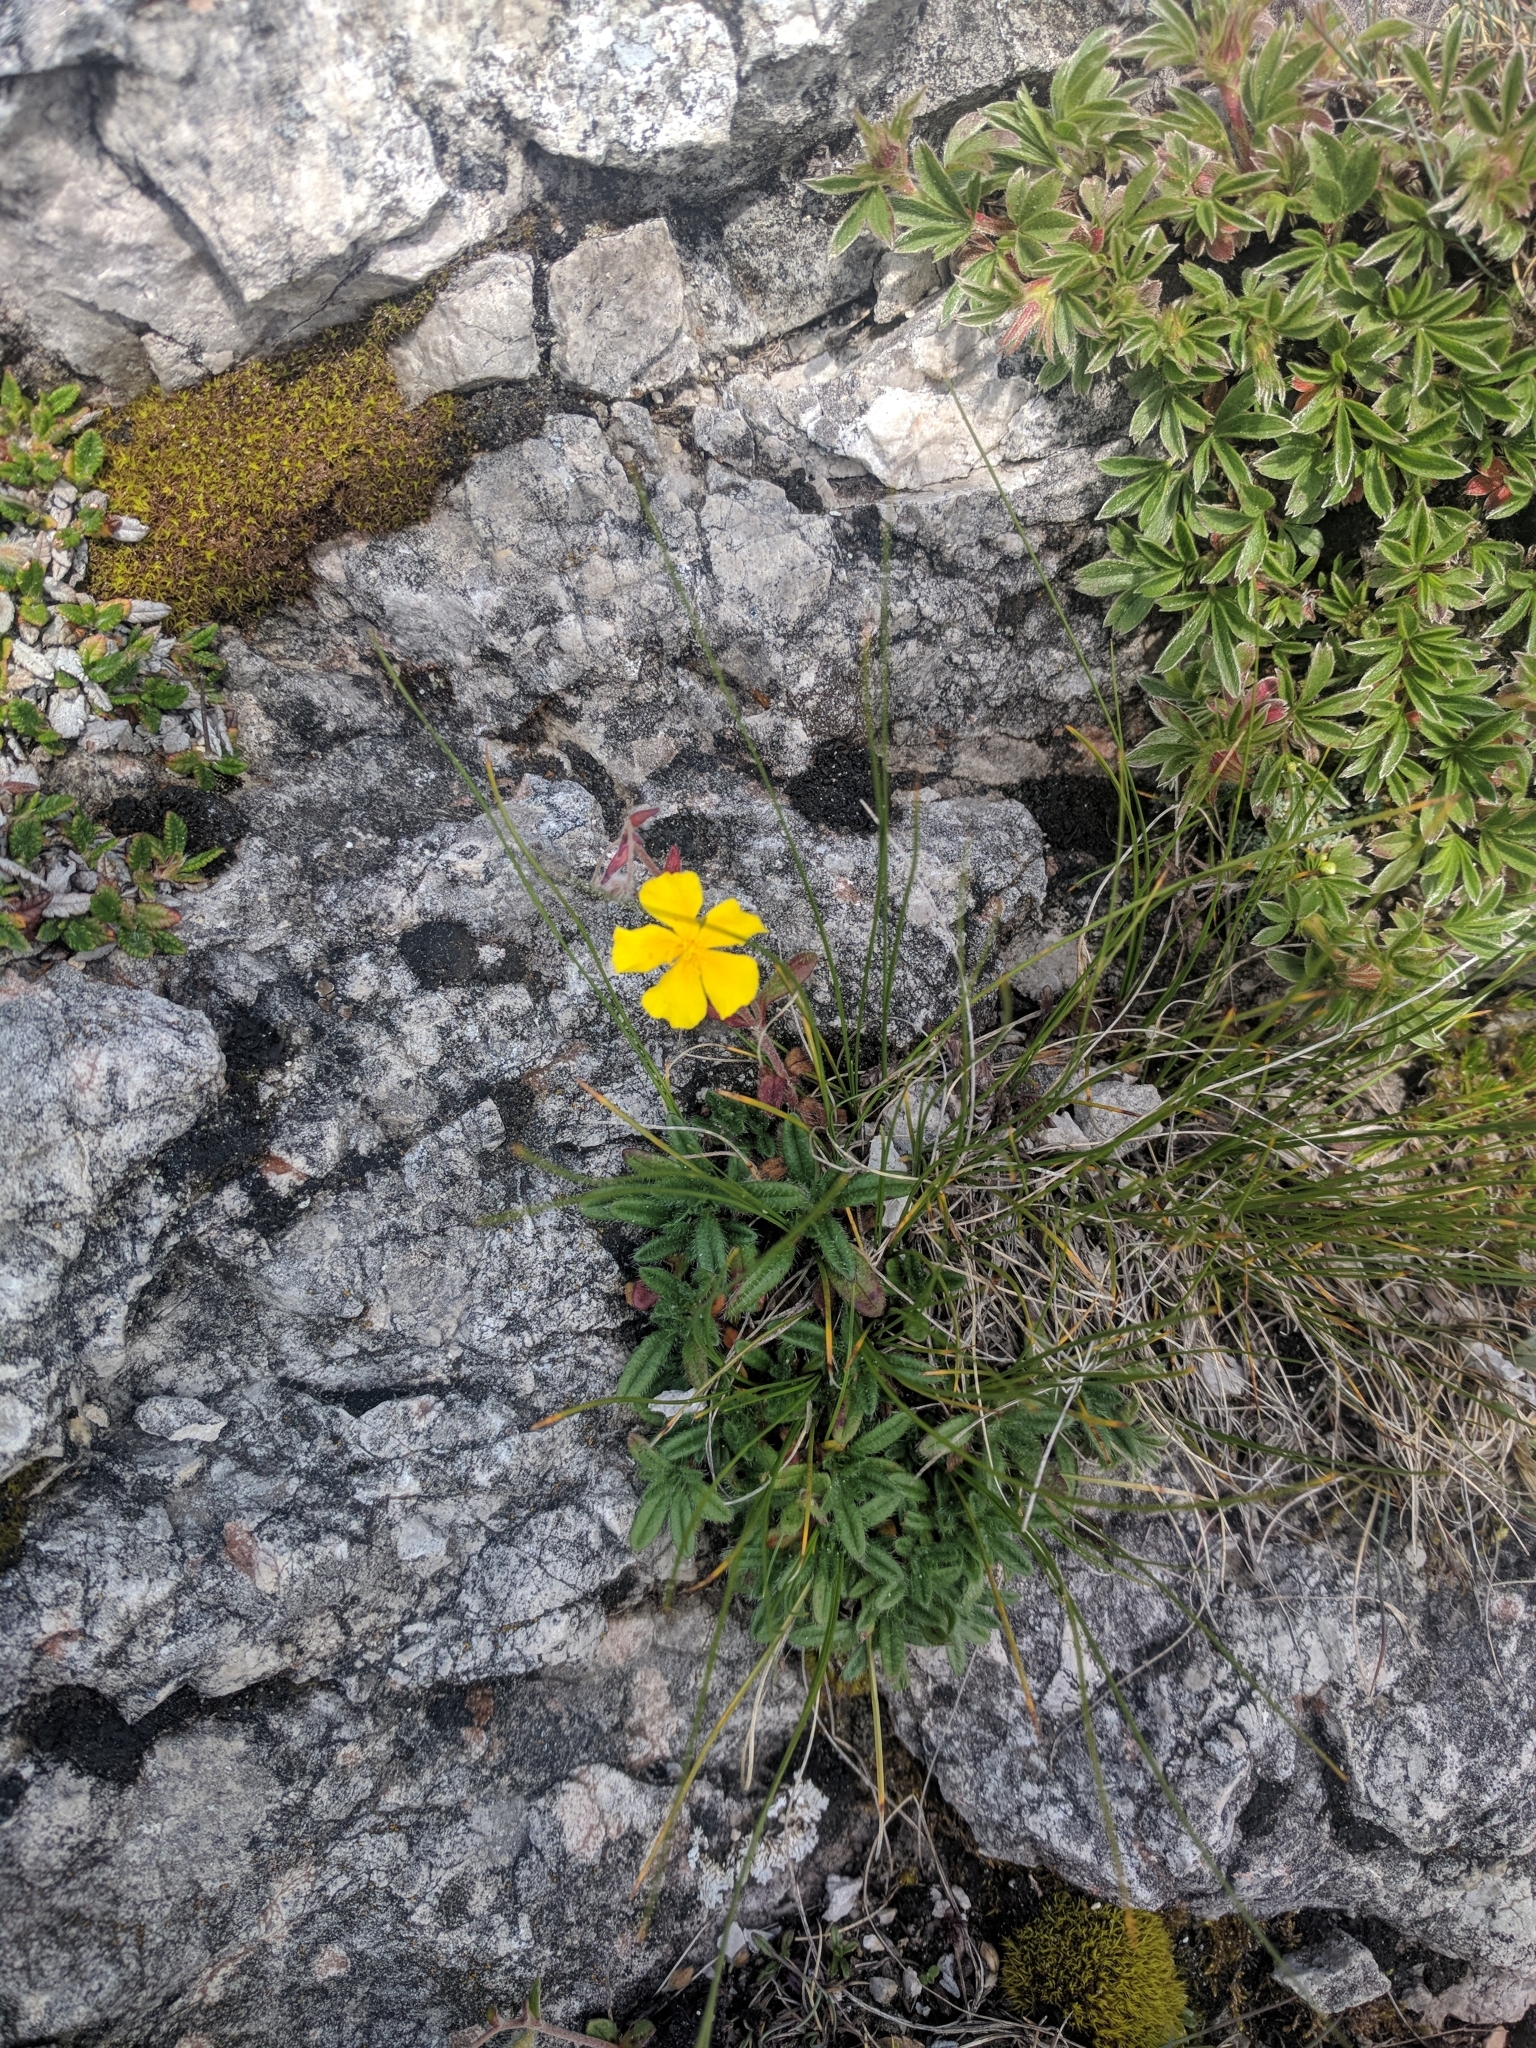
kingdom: Plantae
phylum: Tracheophyta
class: Magnoliopsida
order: Malvales
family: Cistaceae
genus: Helianthemum
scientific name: Helianthemum alpestre
